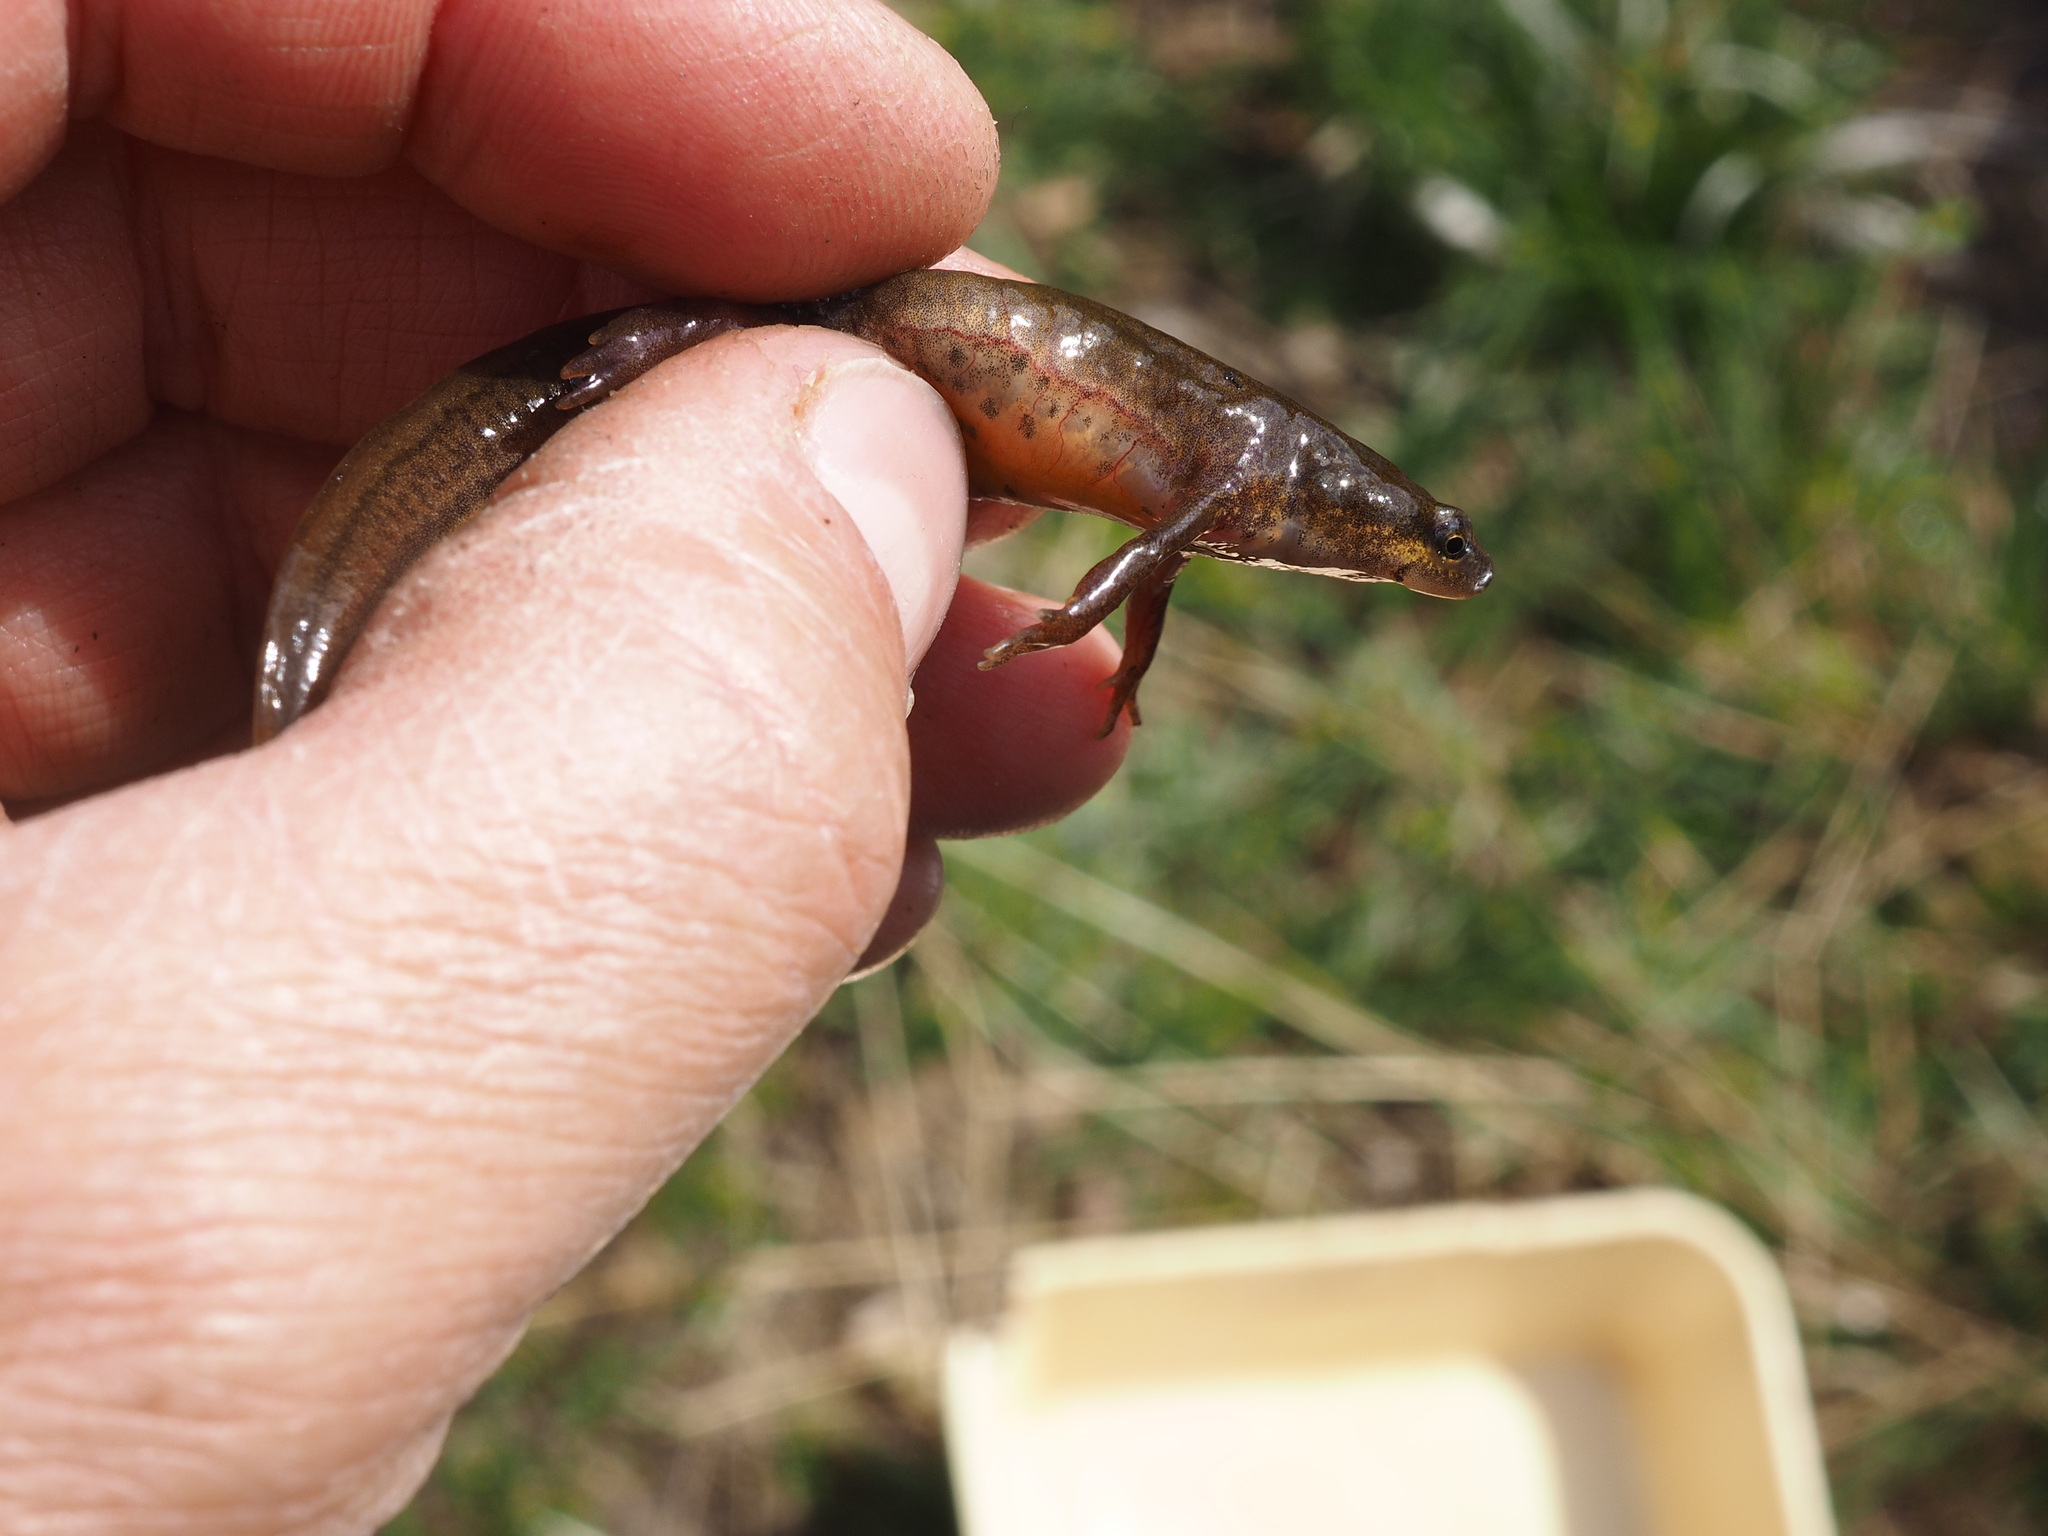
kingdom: Animalia
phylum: Chordata
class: Amphibia
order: Caudata
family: Salamandridae
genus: Lissotriton
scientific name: Lissotriton helveticus
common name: Palmate newt
